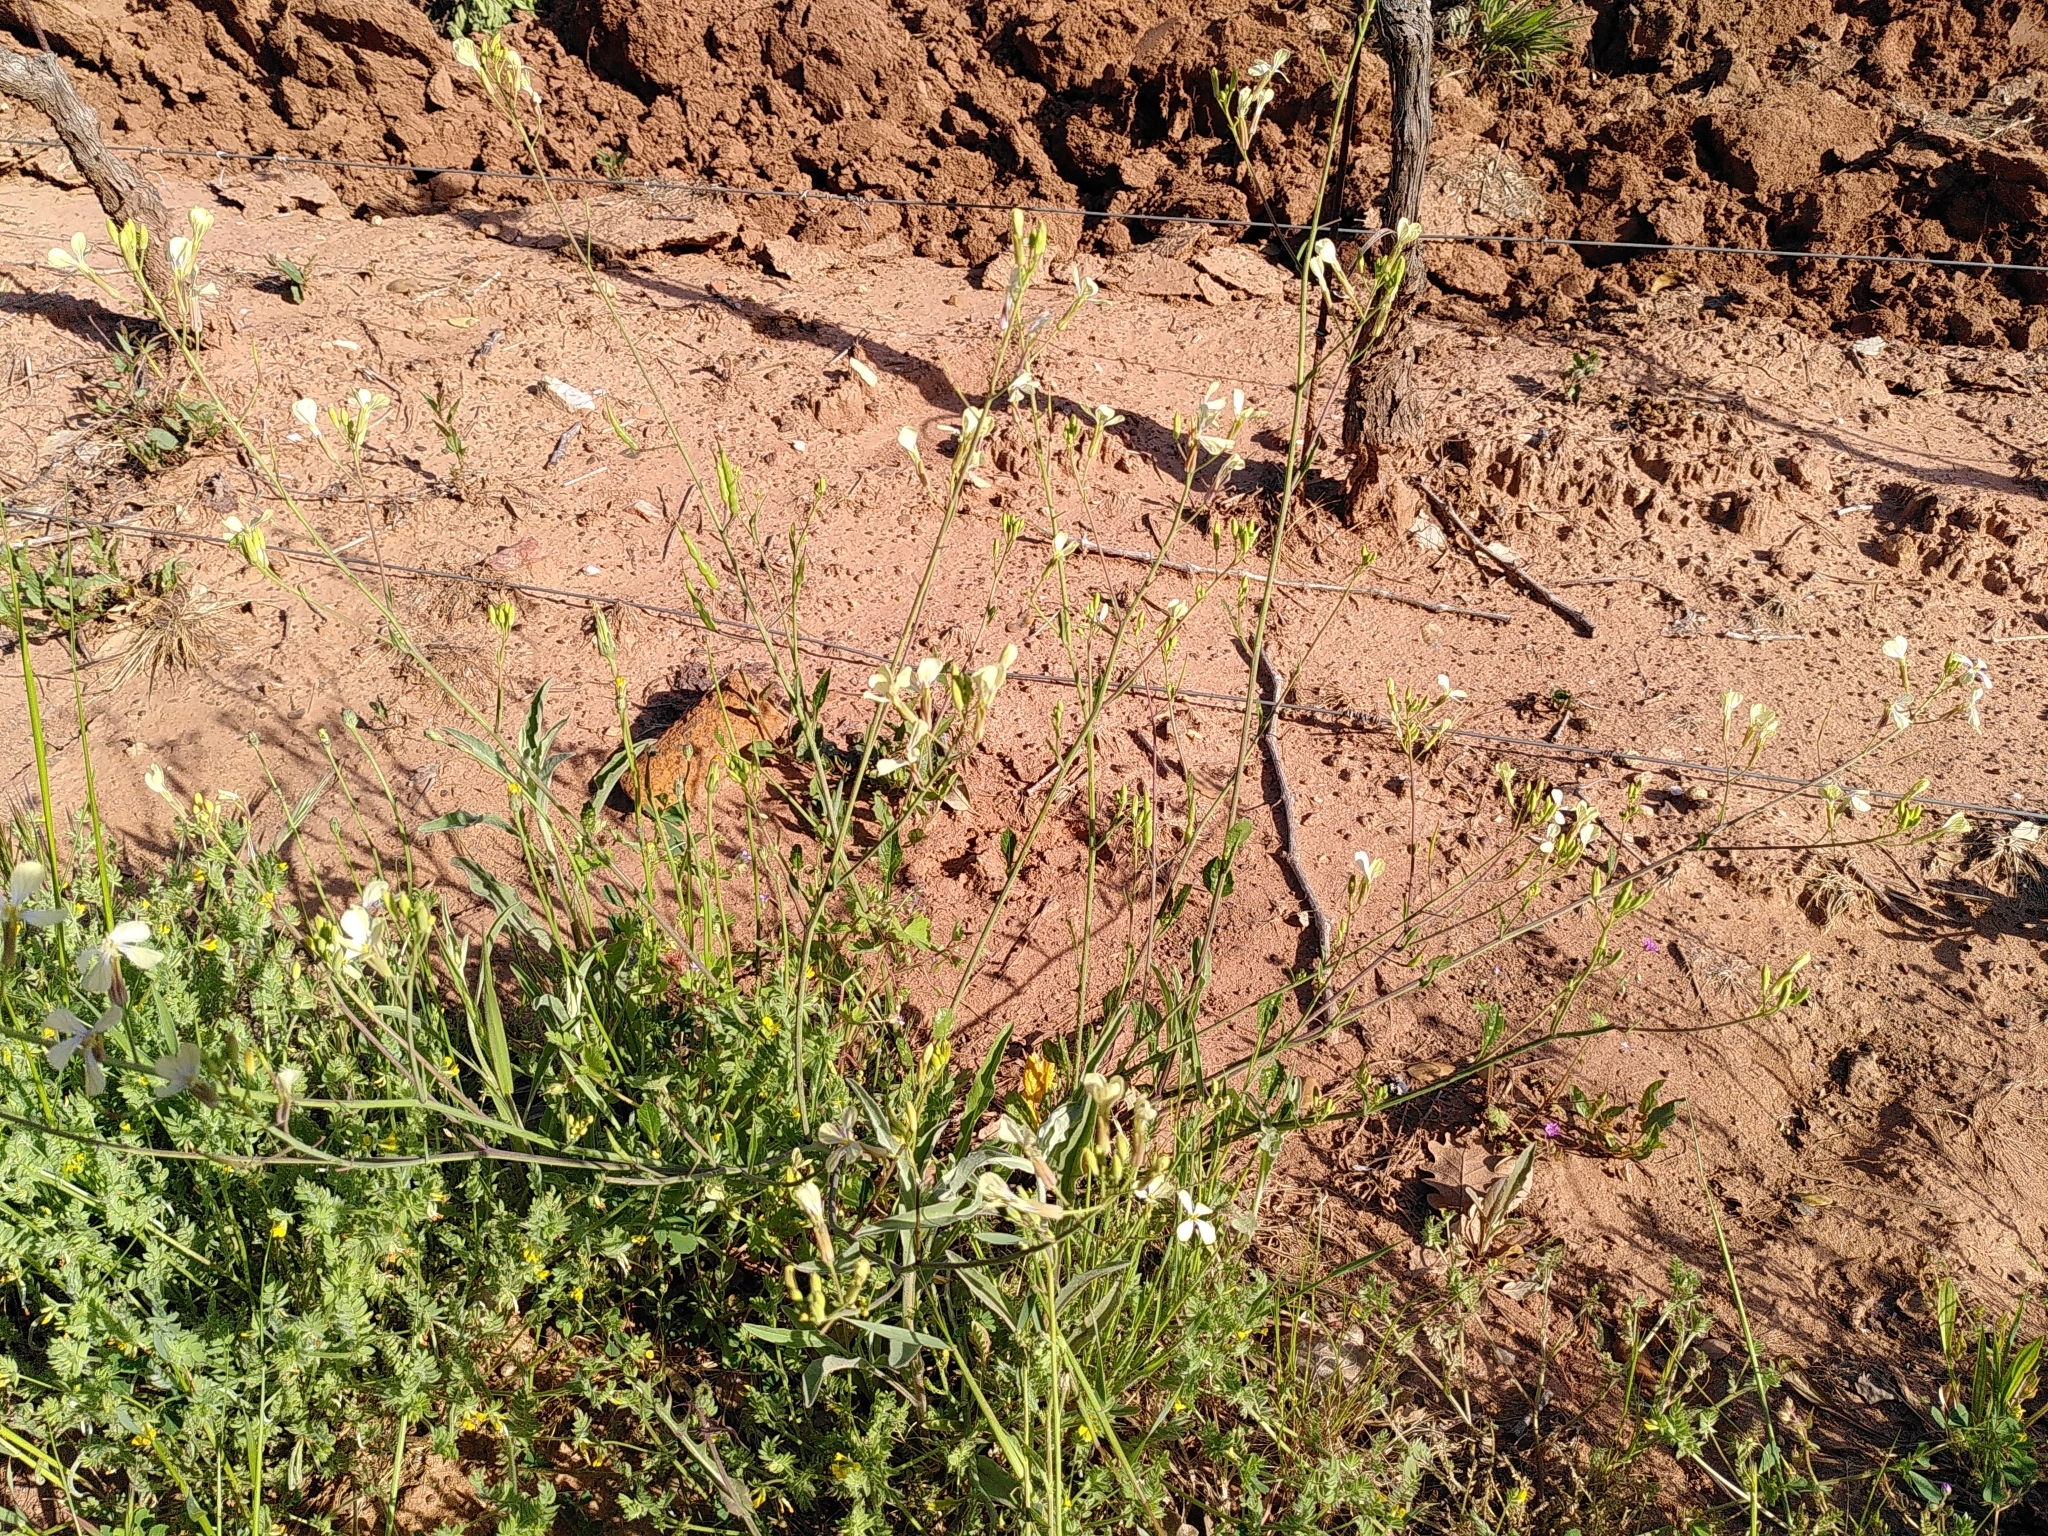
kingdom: Plantae
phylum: Tracheophyta
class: Magnoliopsida
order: Brassicales
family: Brassicaceae
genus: Raphanus
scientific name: Raphanus raphanistrum
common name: Wild radish
